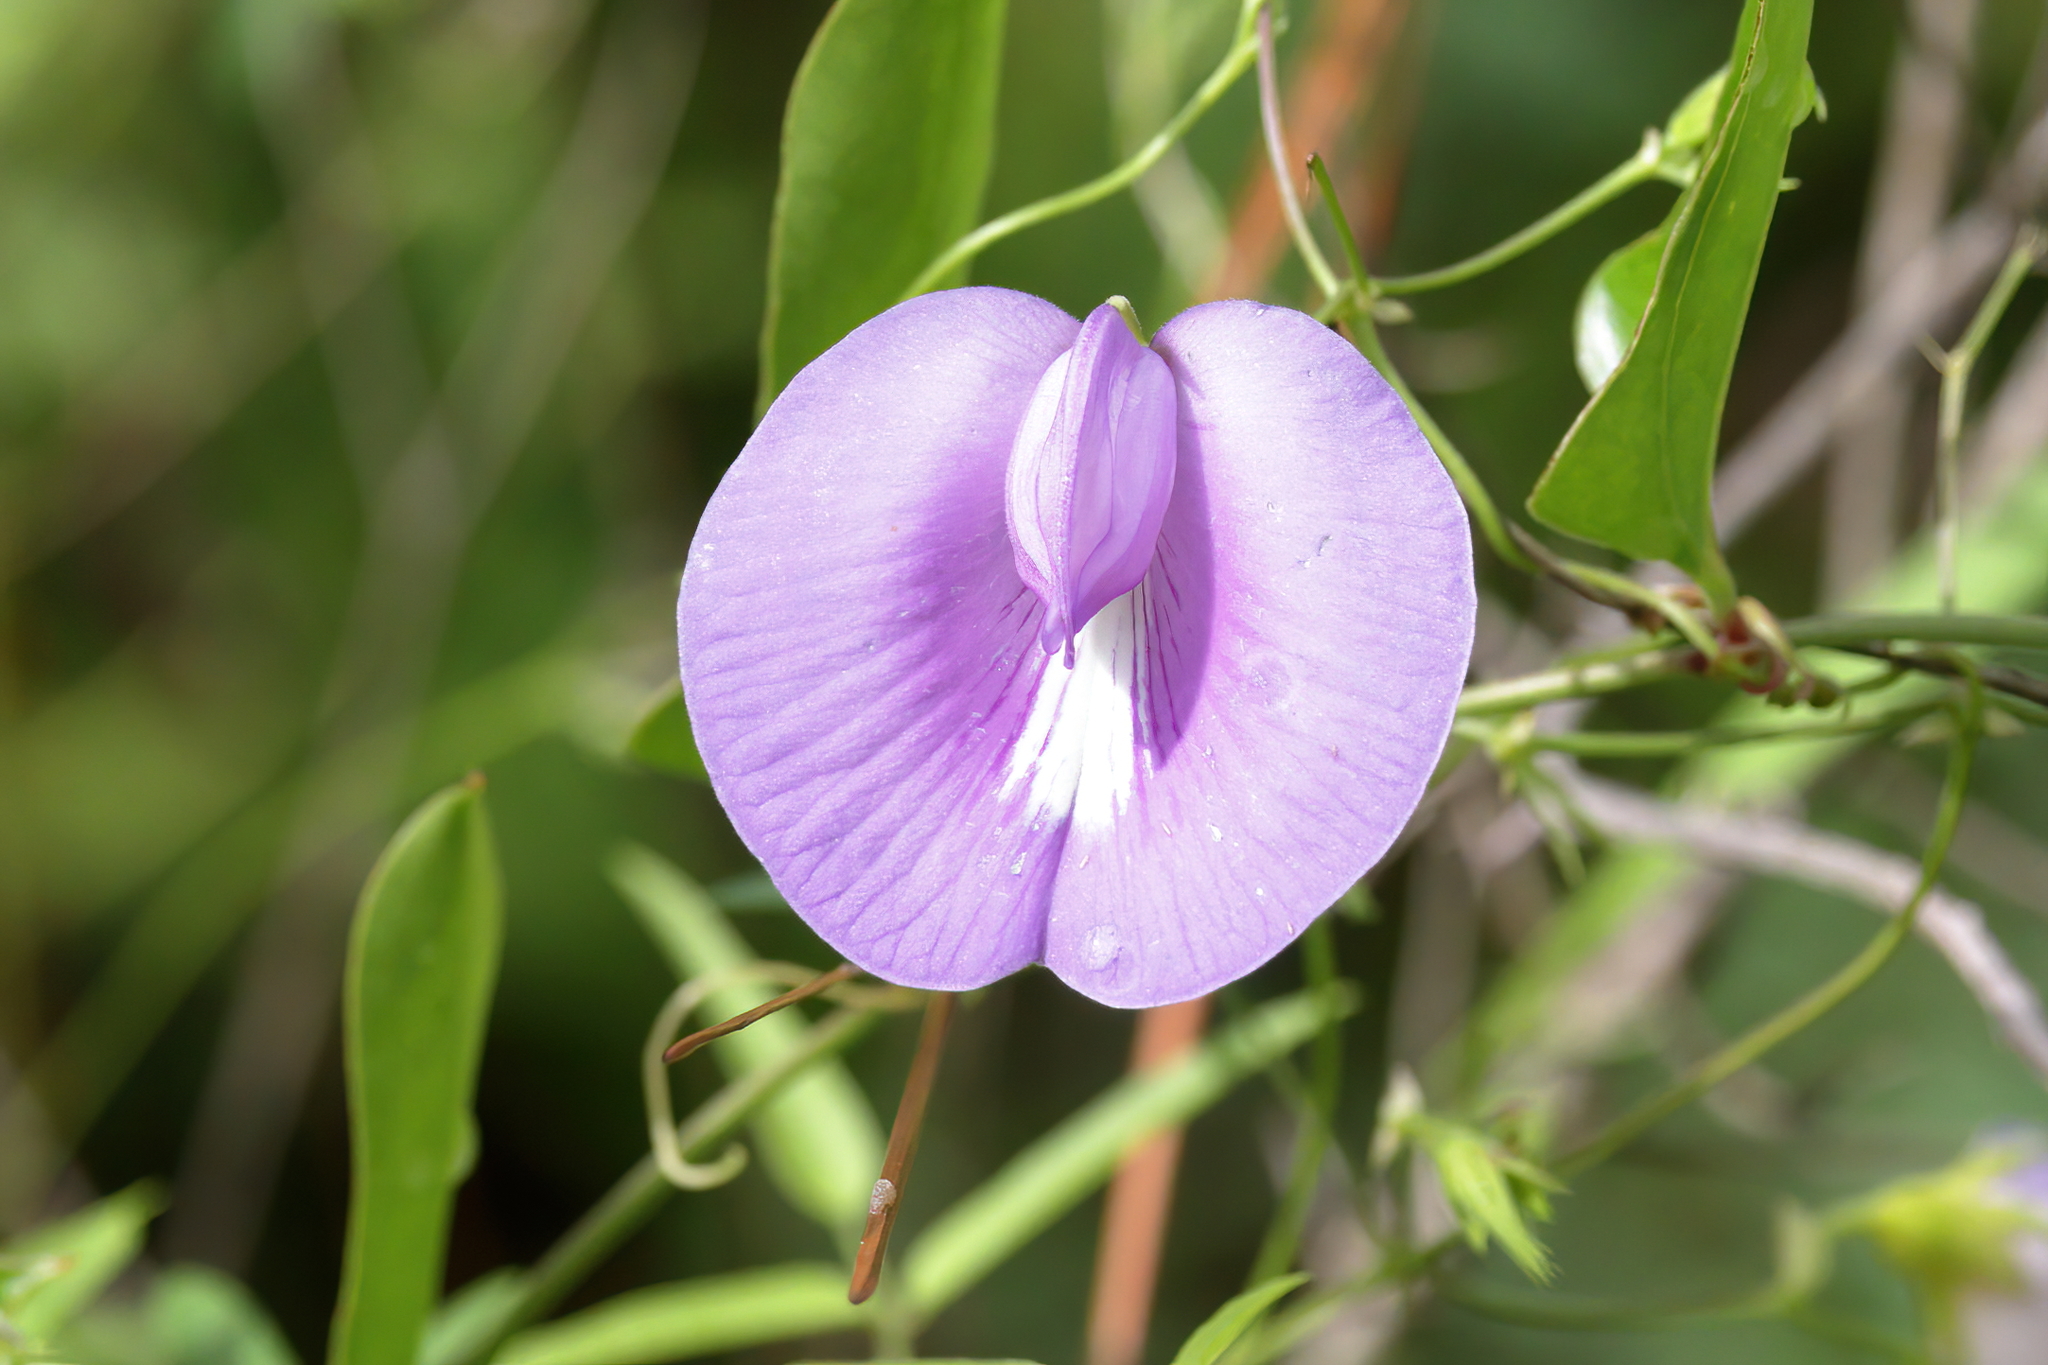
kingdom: Plantae
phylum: Tracheophyta
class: Magnoliopsida
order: Fabales
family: Fabaceae
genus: Centrosema
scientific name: Centrosema virginianum
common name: Butterfly-pea
